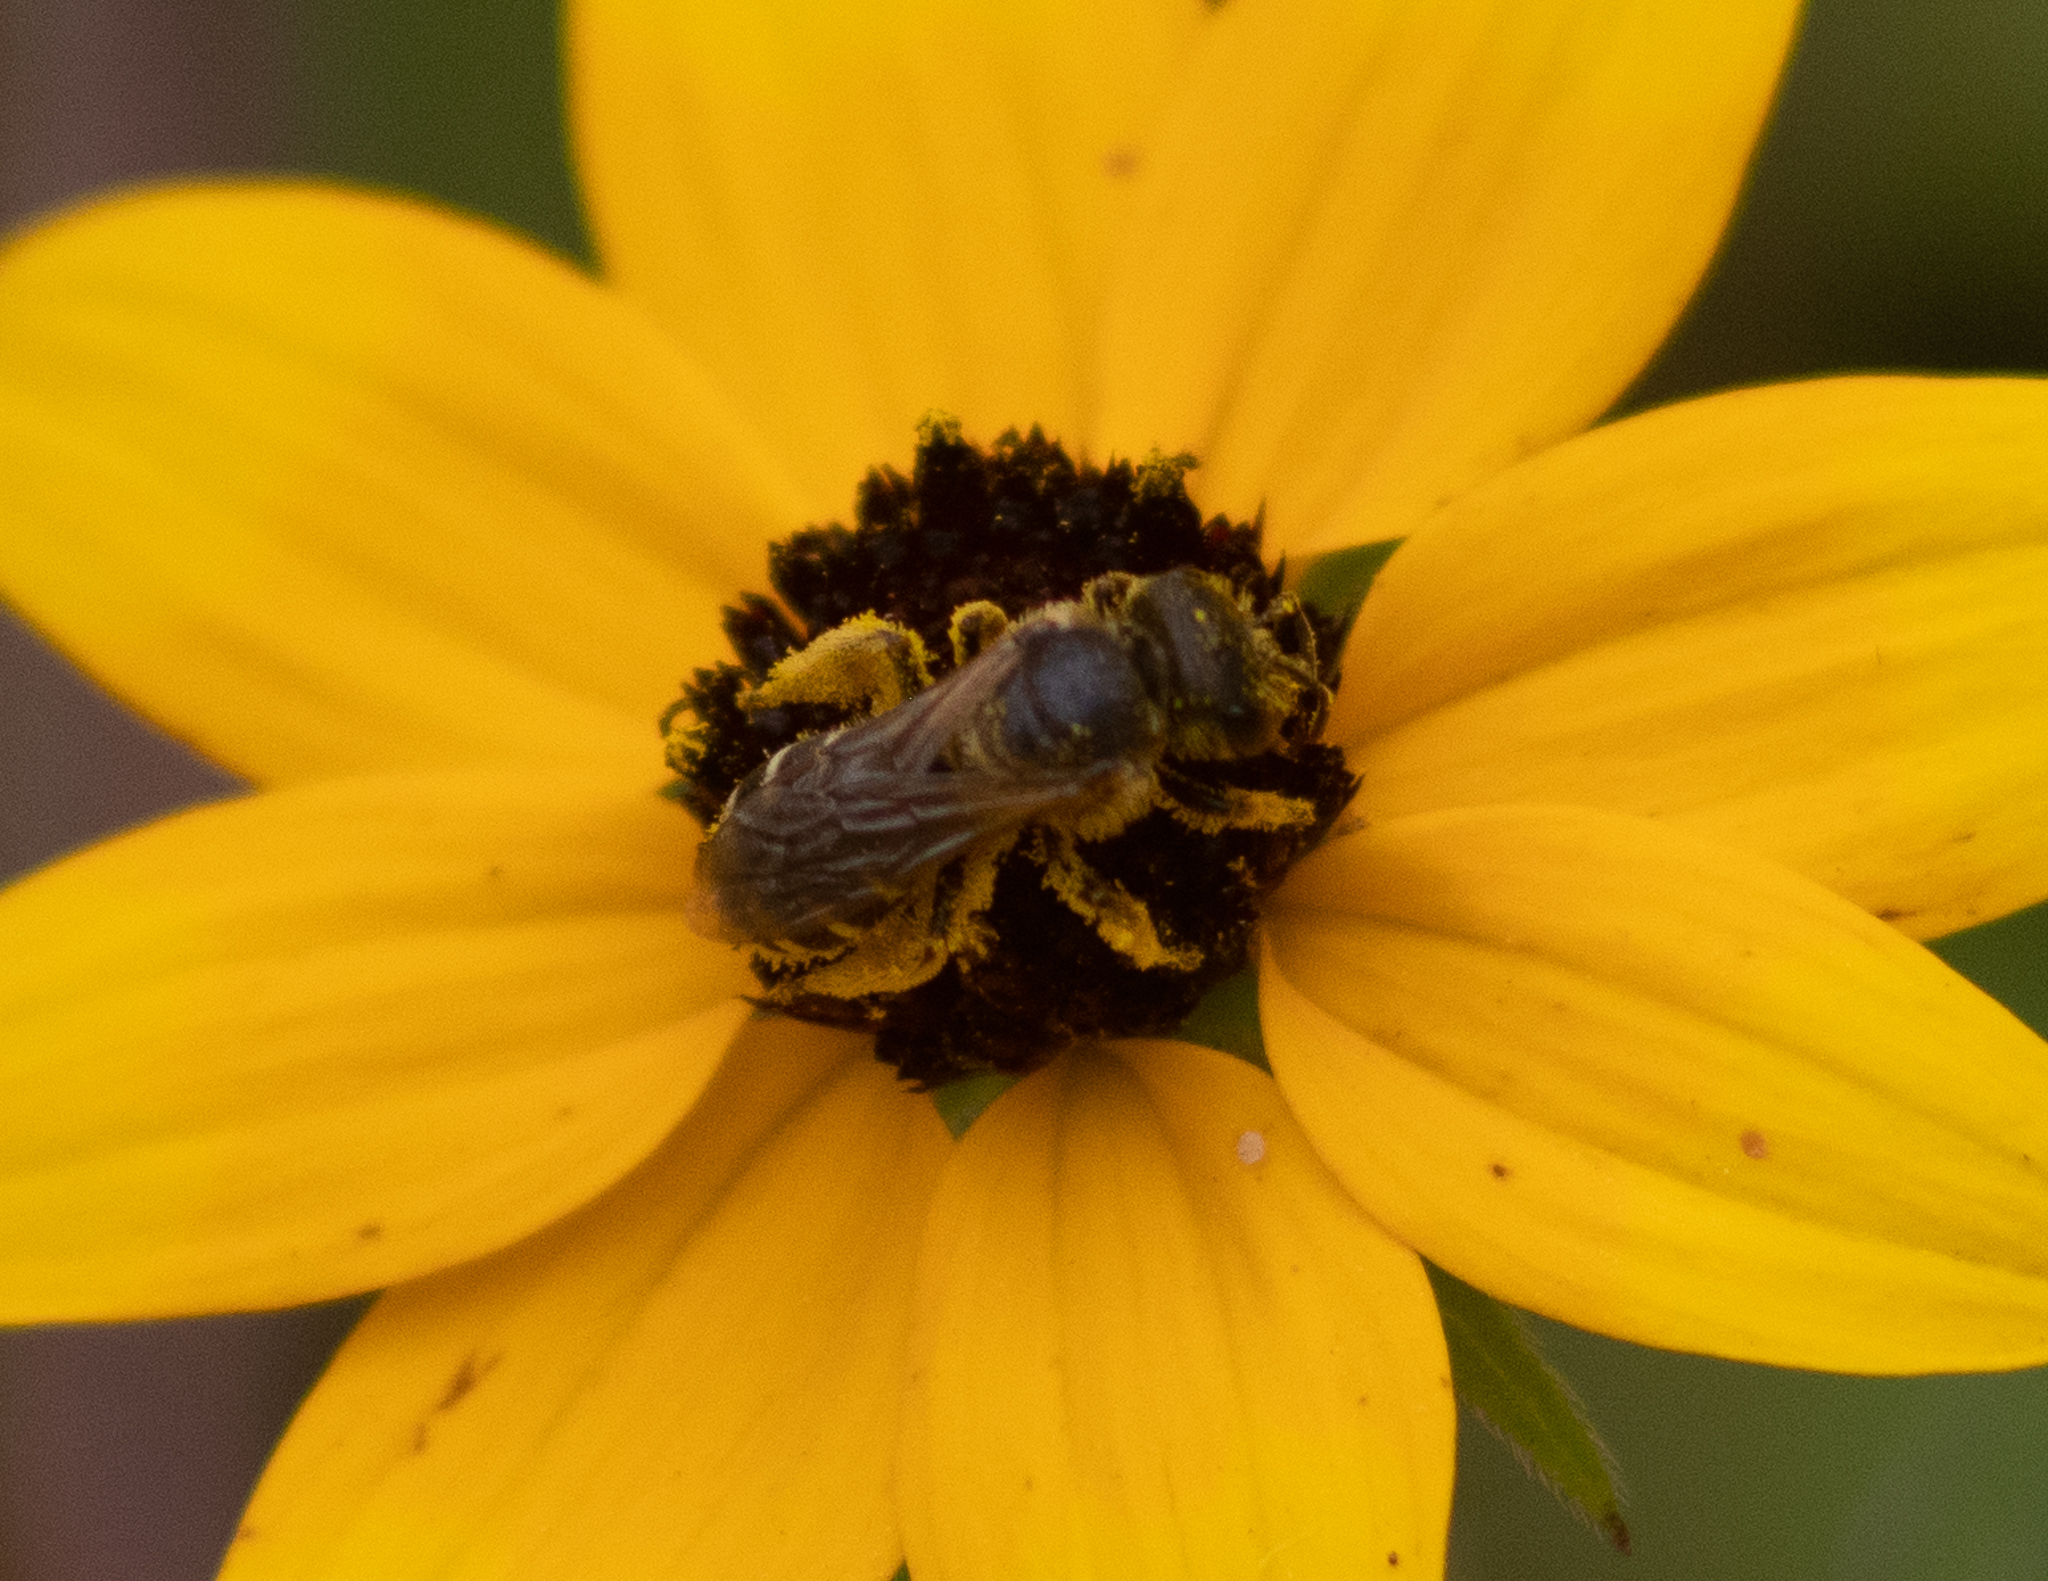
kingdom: Animalia
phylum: Arthropoda
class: Insecta
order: Hymenoptera
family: Halictidae
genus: Halictus
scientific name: Halictus ligatus
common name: Ligated furrow bee
